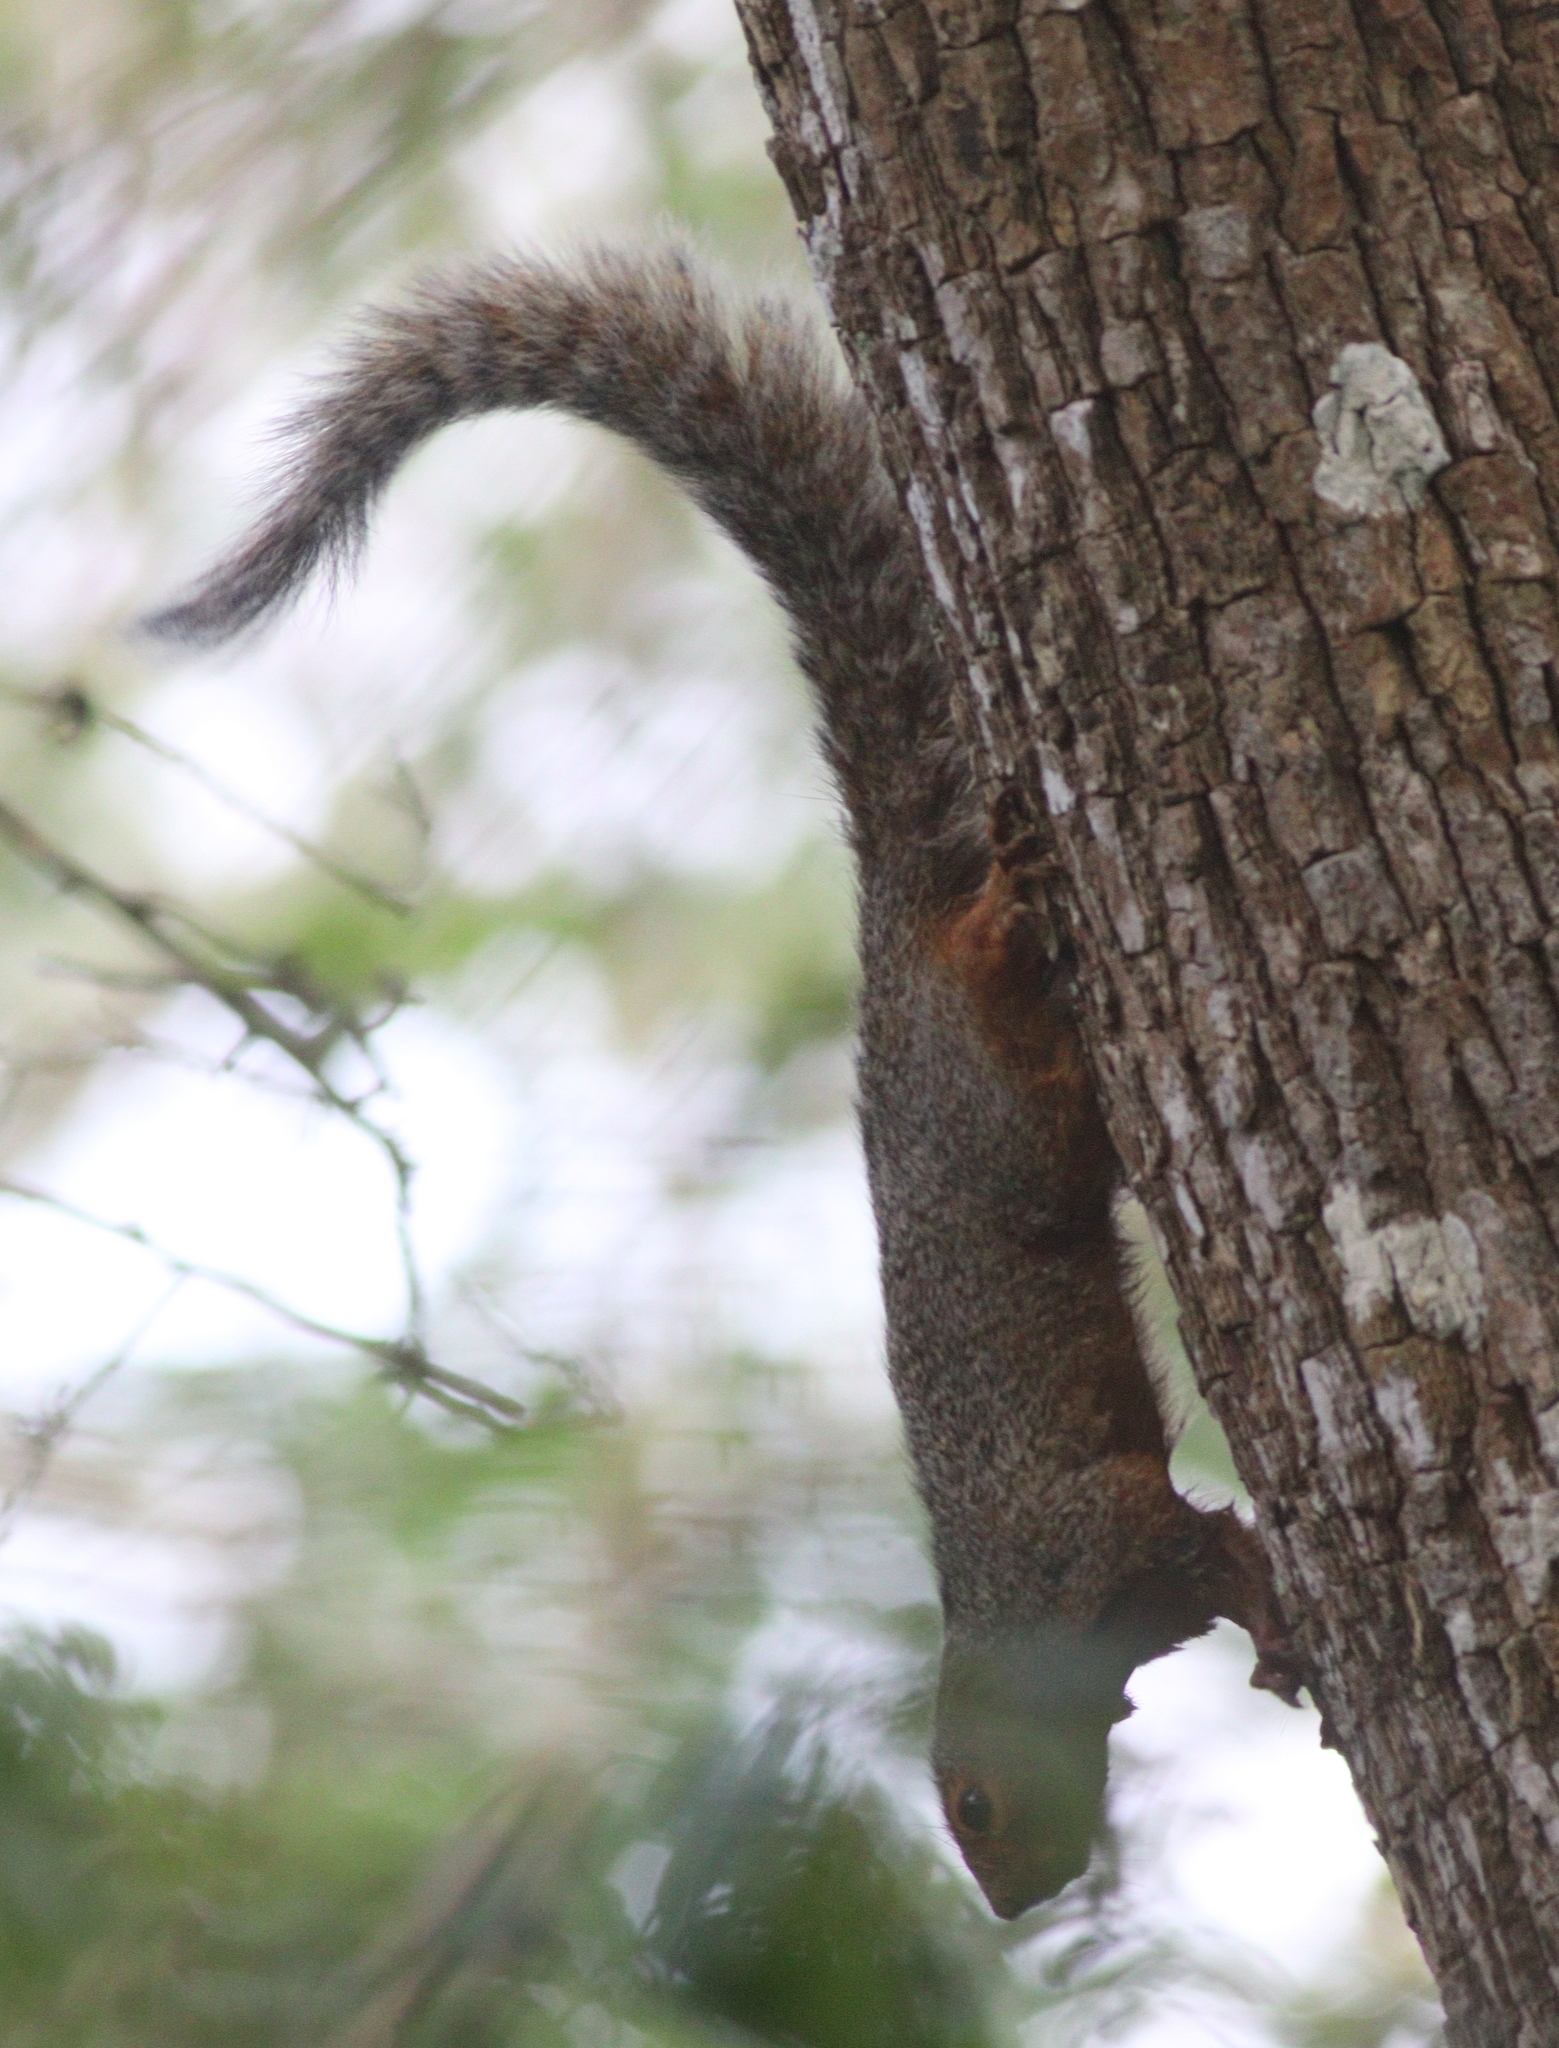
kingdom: Animalia
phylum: Chordata
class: Mammalia
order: Rodentia
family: Sciuridae
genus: Heliosciurus
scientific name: Heliosciurus undulatus
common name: Zanj sun squirrel
